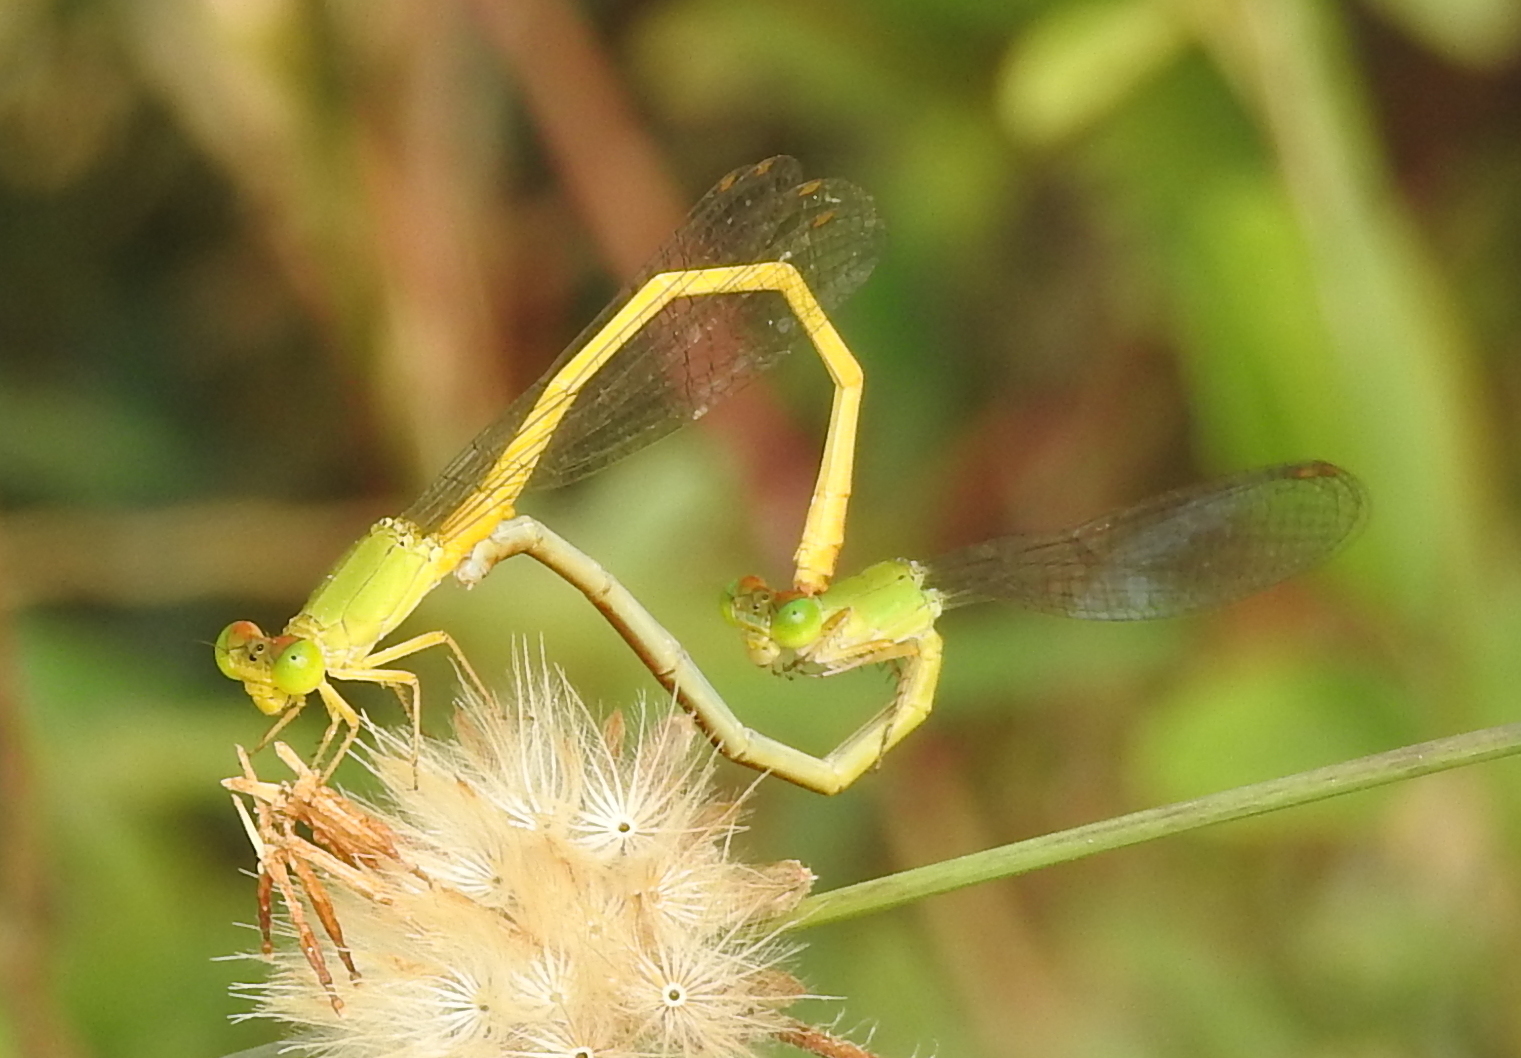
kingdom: Animalia
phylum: Arthropoda
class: Insecta
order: Odonata
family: Coenagrionidae
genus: Ceriagrion
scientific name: Ceriagrion coromandelianum
